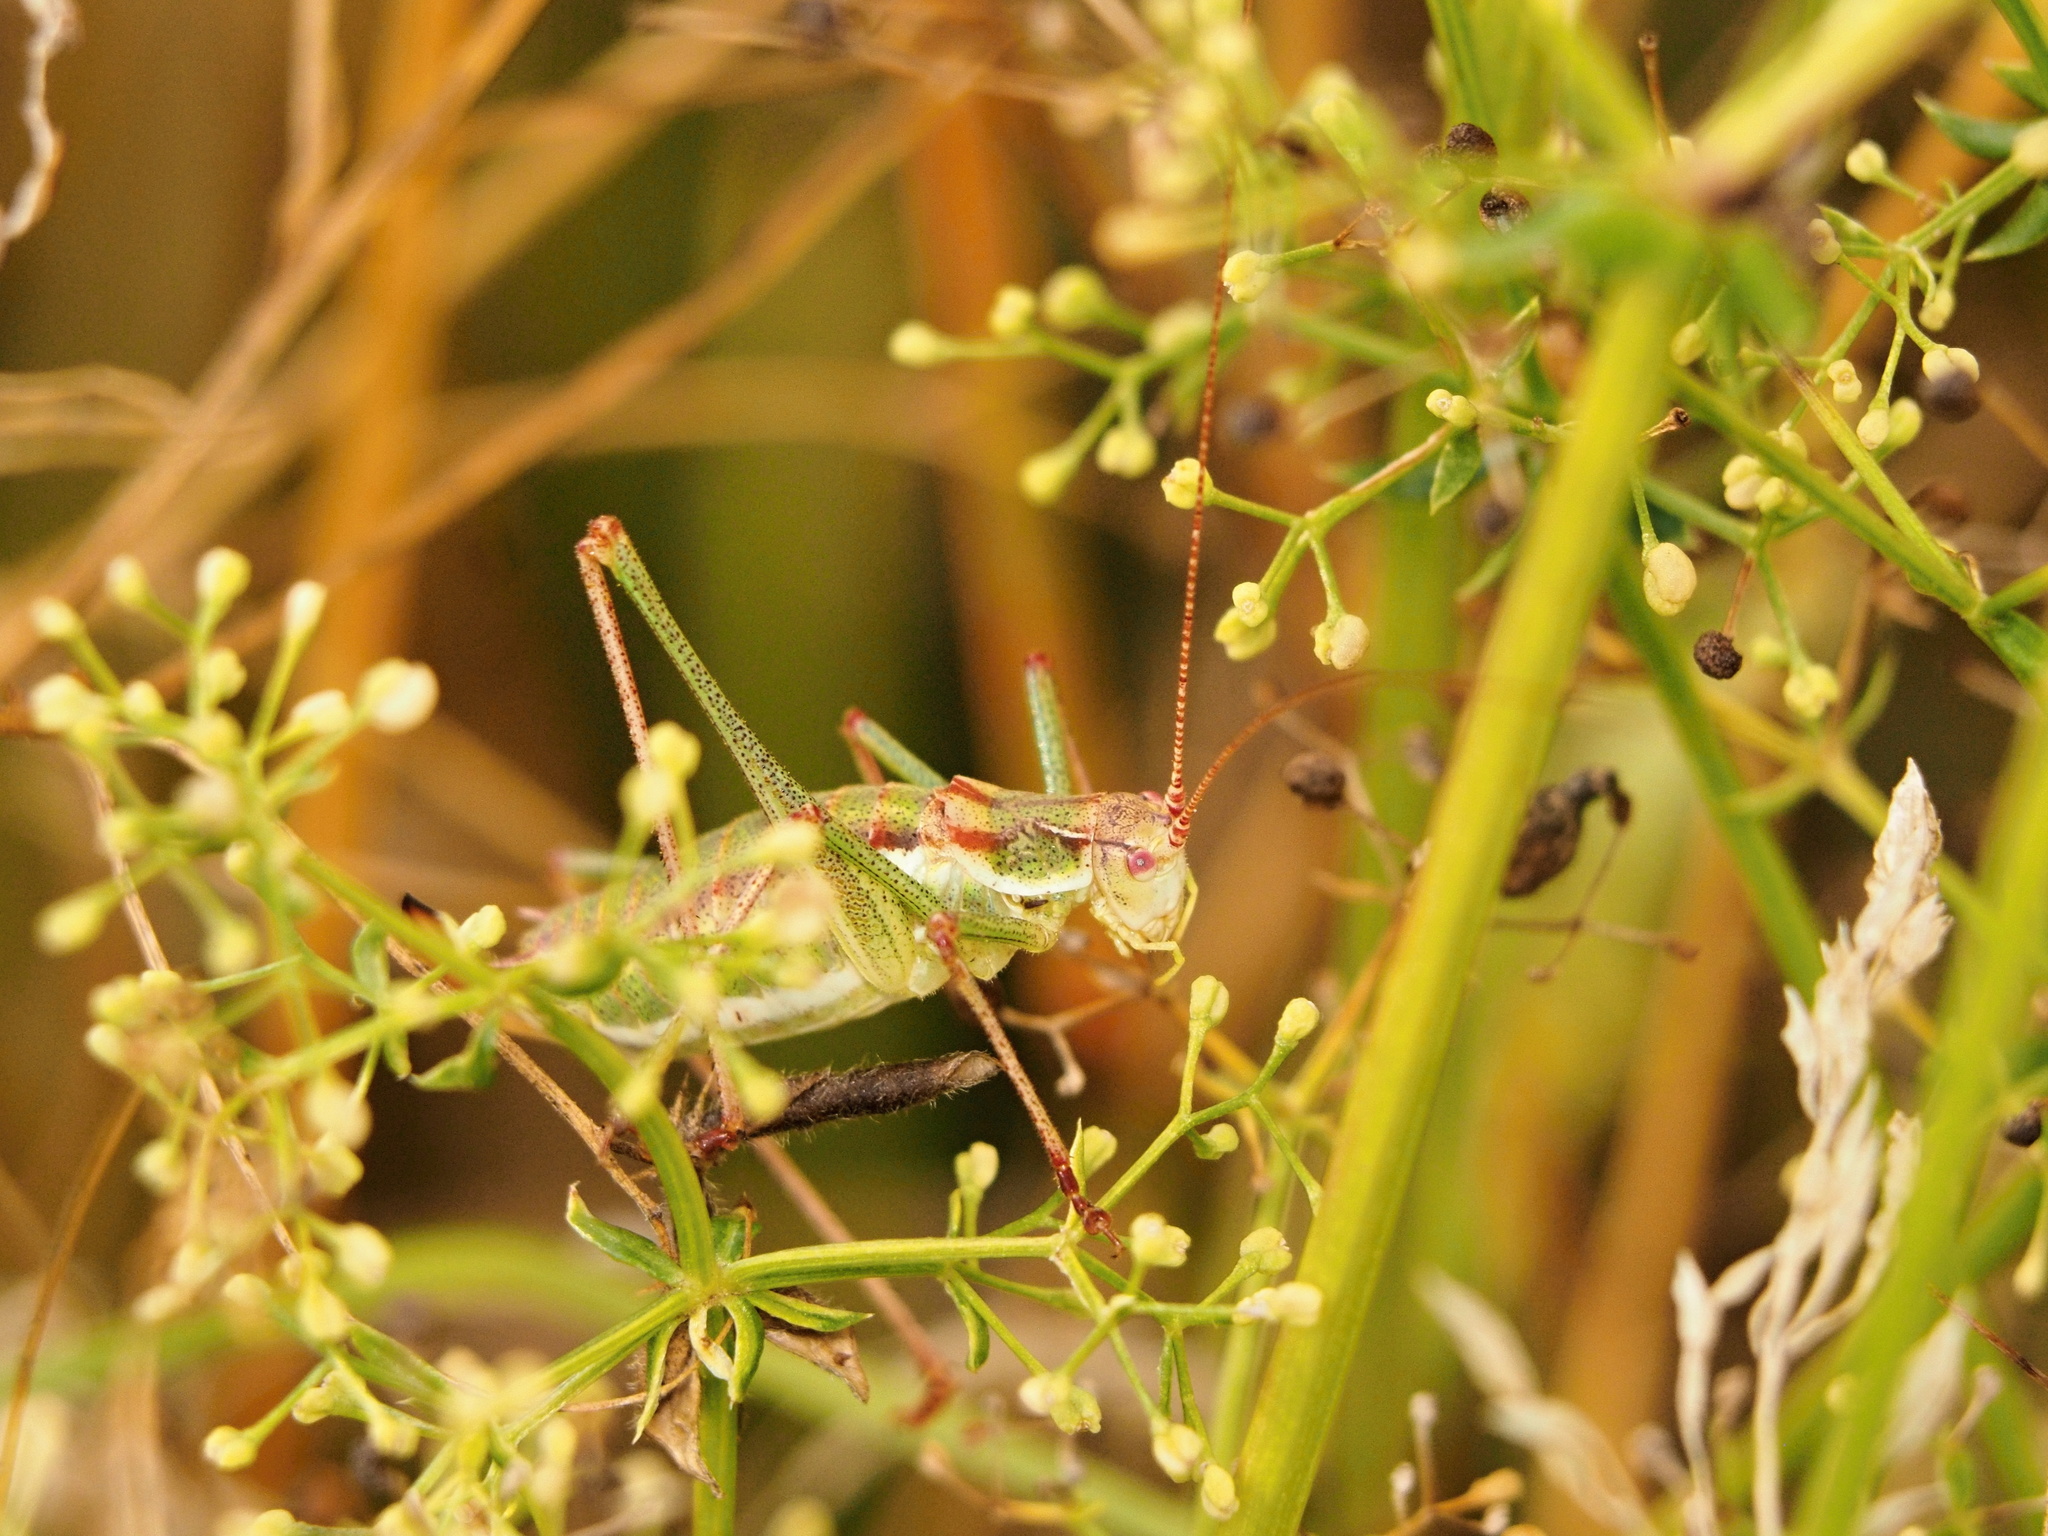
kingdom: Animalia
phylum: Arthropoda
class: Insecta
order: Orthoptera
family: Tettigoniidae
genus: Leptophyes
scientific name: Leptophyes albovittata
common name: Striped bush-cricket
